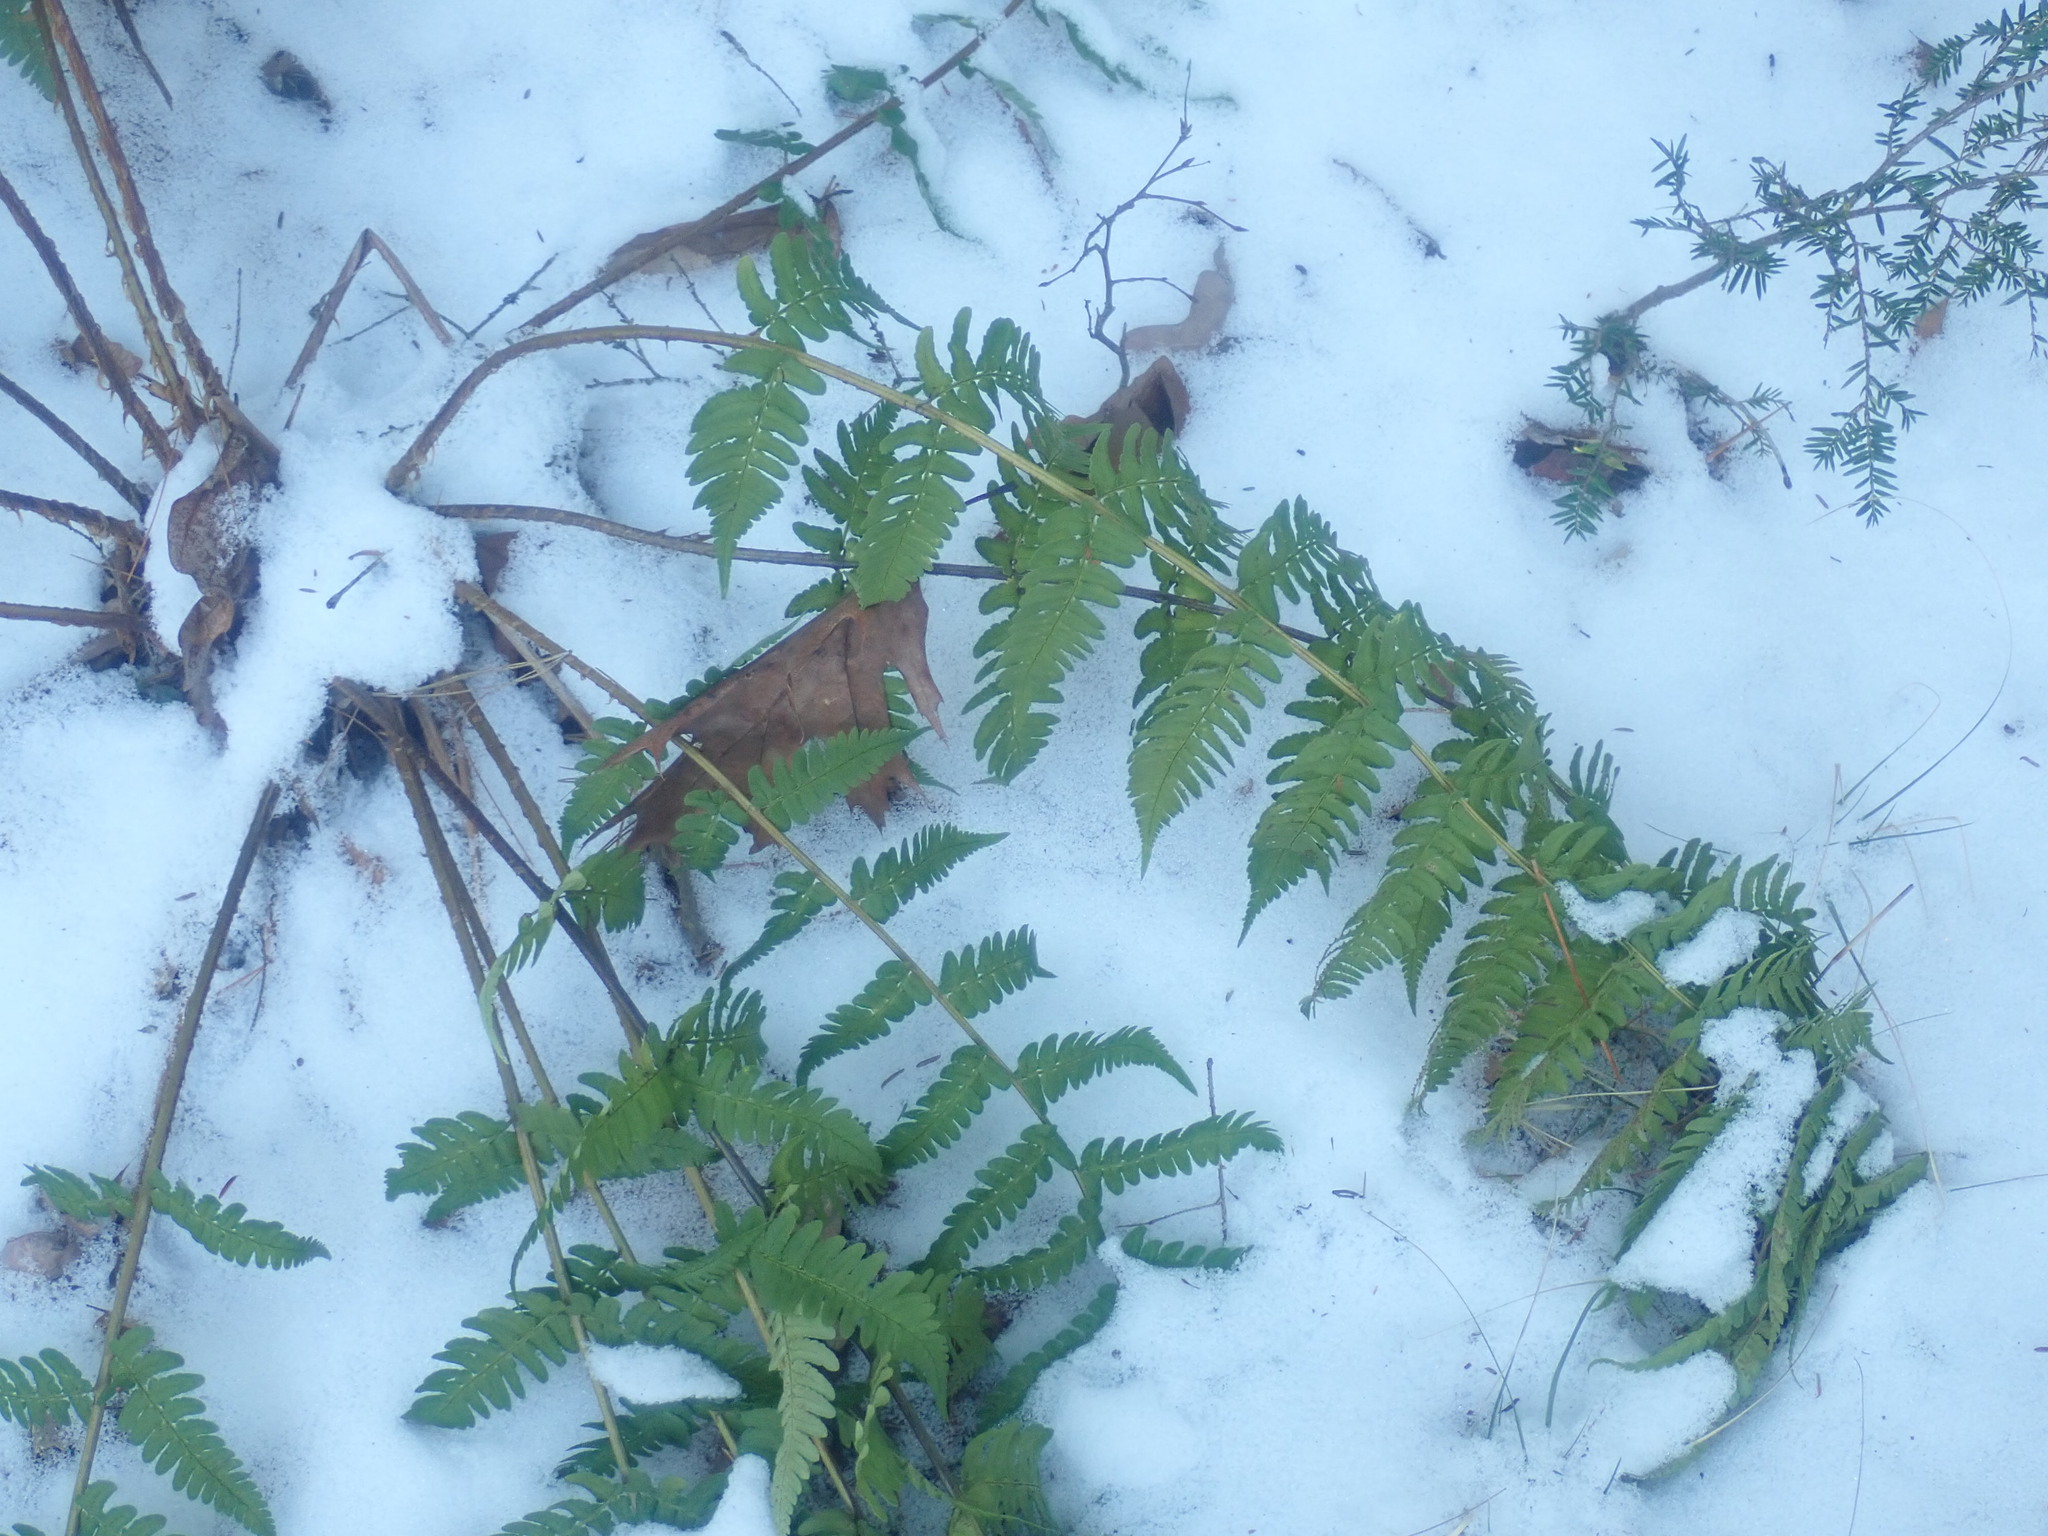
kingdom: Plantae
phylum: Tracheophyta
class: Polypodiopsida
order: Polypodiales
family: Dryopteridaceae
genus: Dryopteris
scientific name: Dryopteris marginalis
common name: Marginal wood fern
